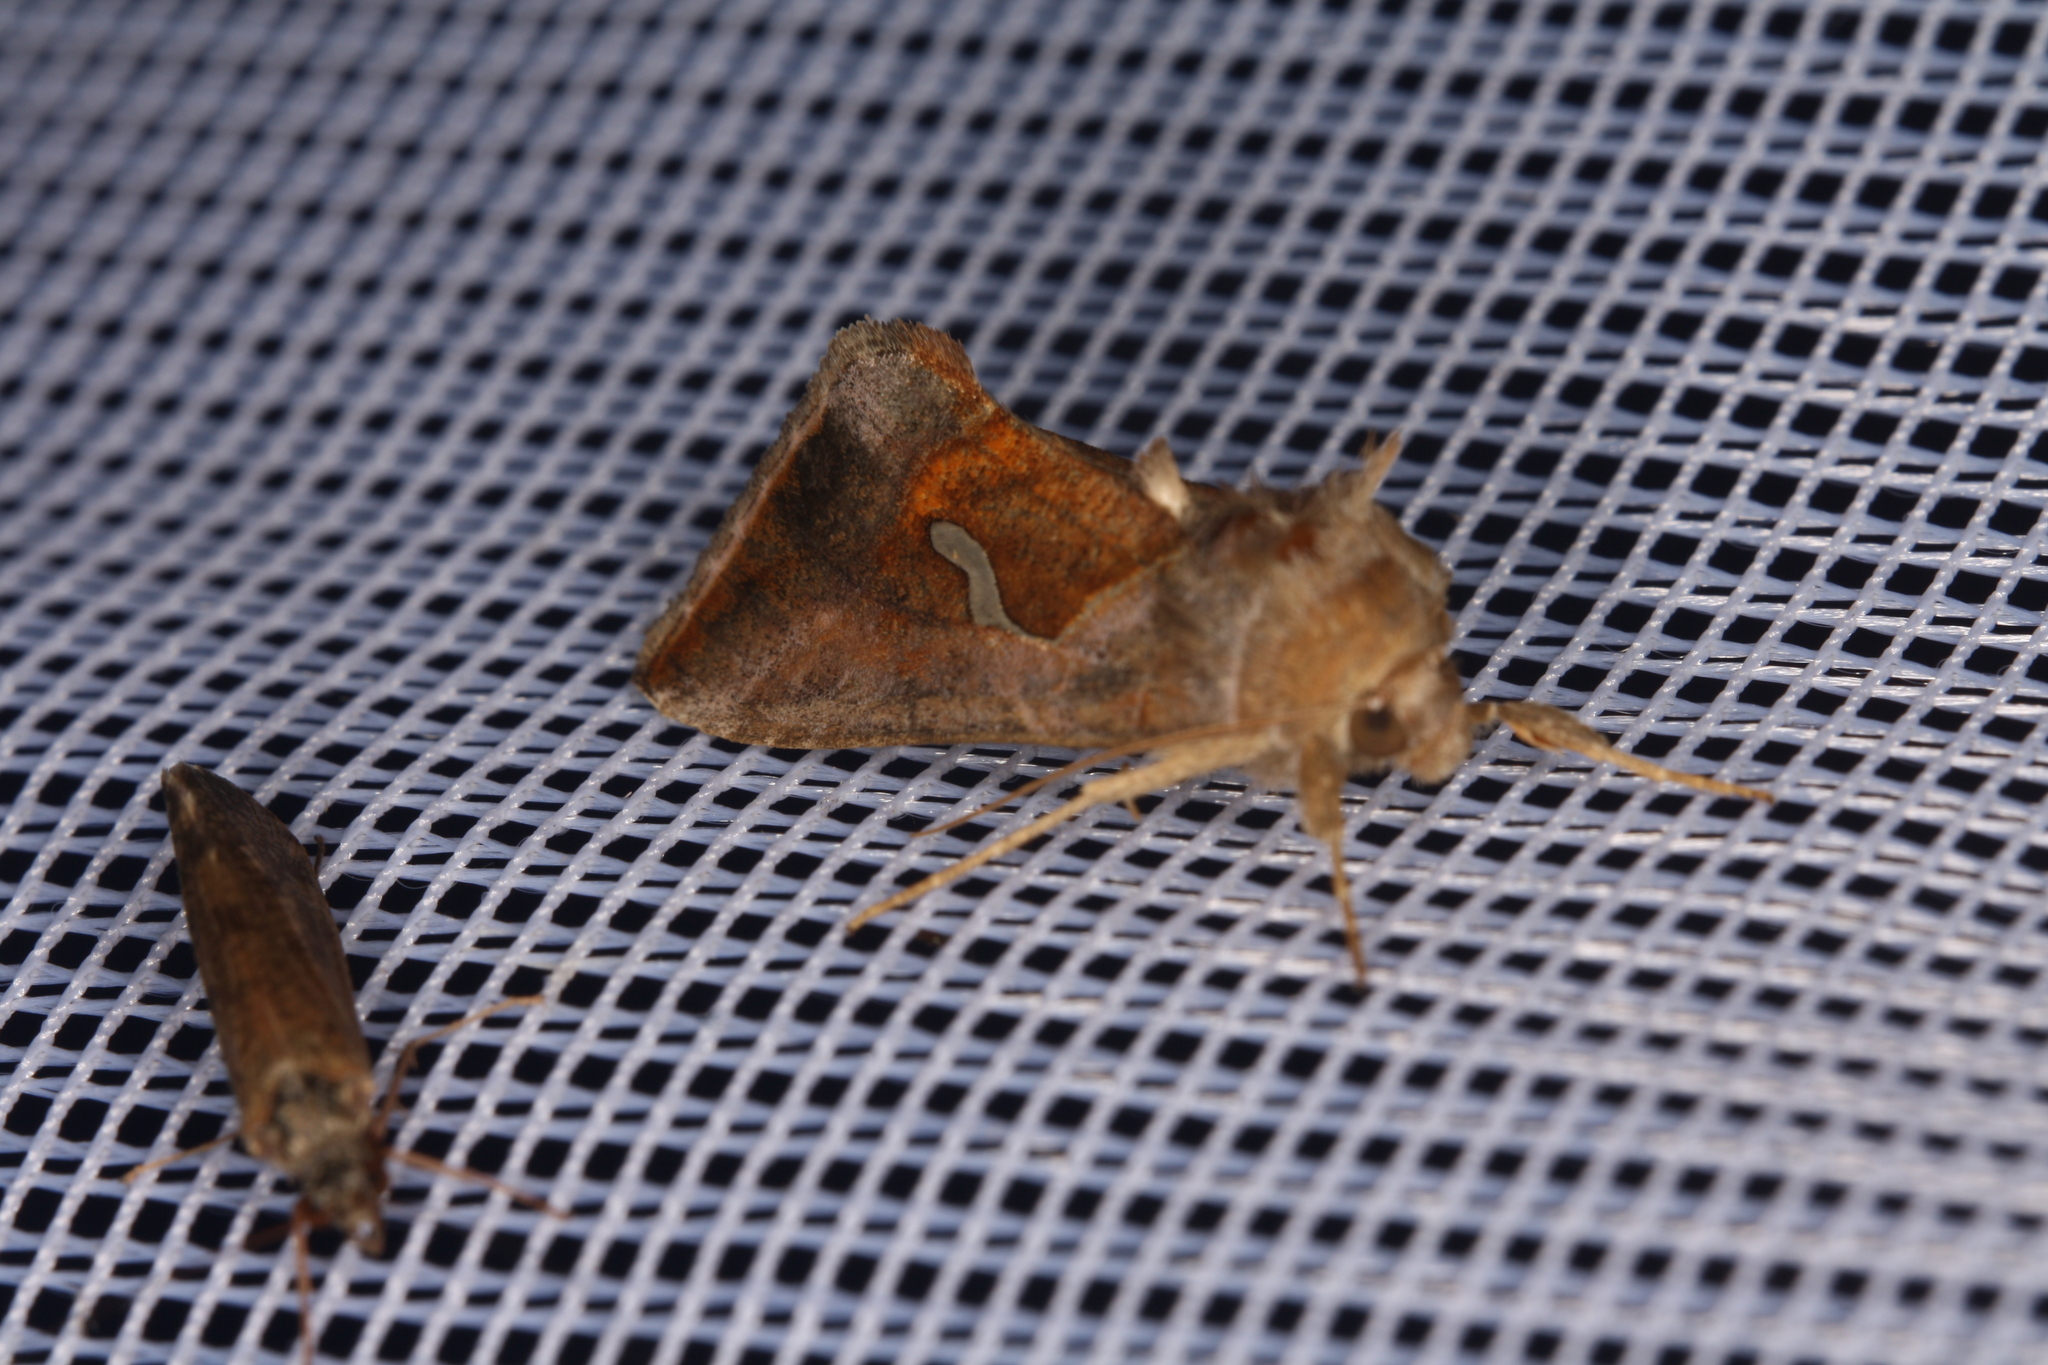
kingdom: Animalia
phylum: Arthropoda
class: Insecta
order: Lepidoptera
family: Noctuidae
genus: Macdunnoughia
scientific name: Macdunnoughia confusa
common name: Dewick's plusia
